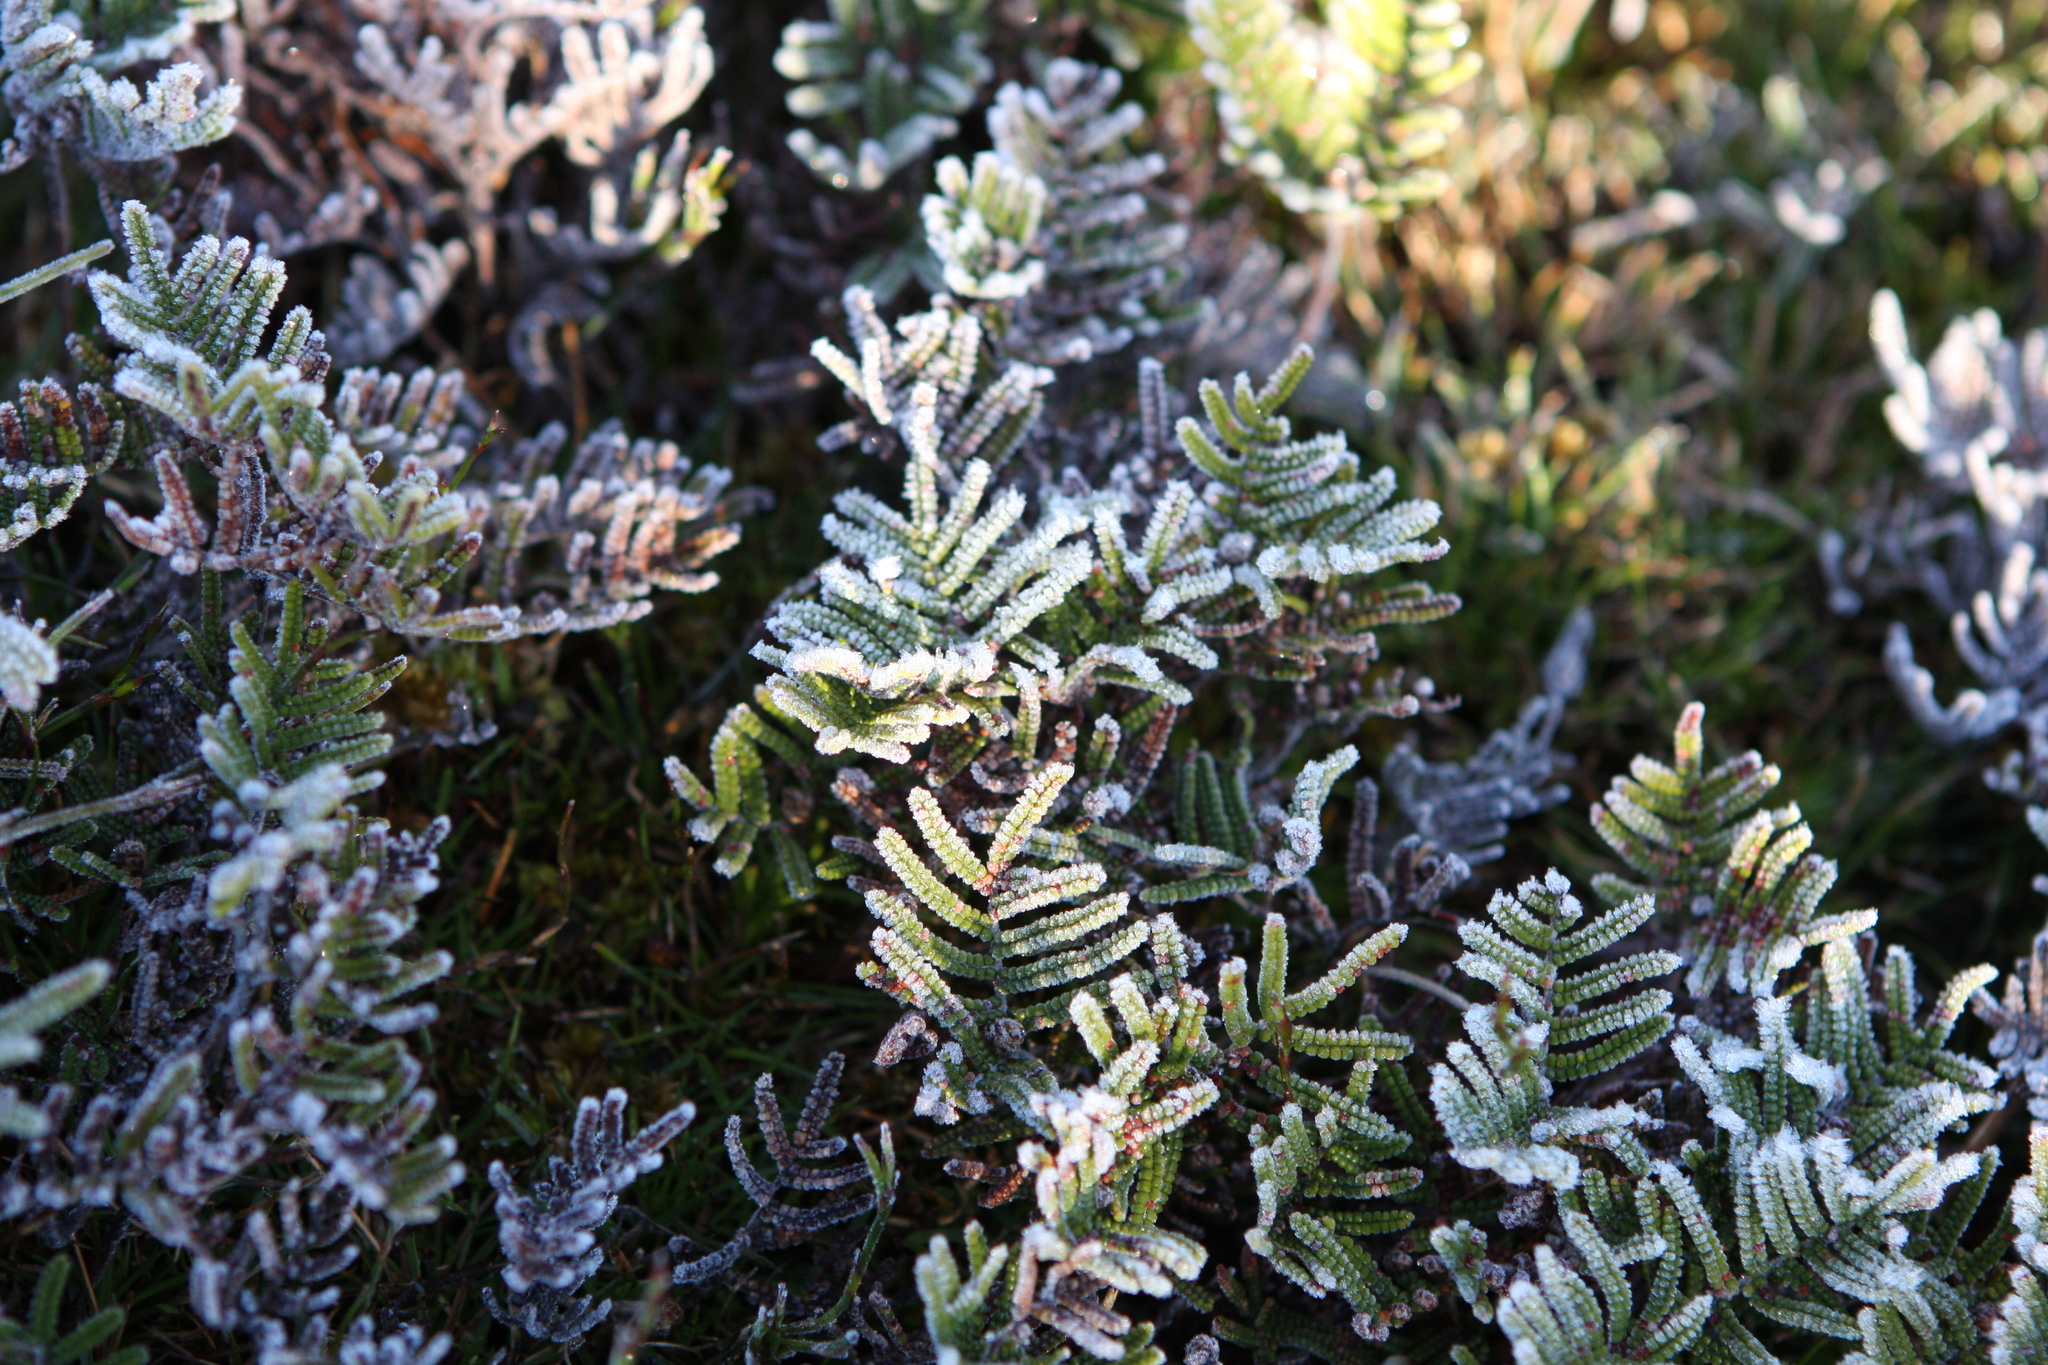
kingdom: Plantae
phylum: Tracheophyta
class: Polypodiopsida
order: Gleicheniales
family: Gleicheniaceae
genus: Gleichenia
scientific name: Gleichenia alpina
